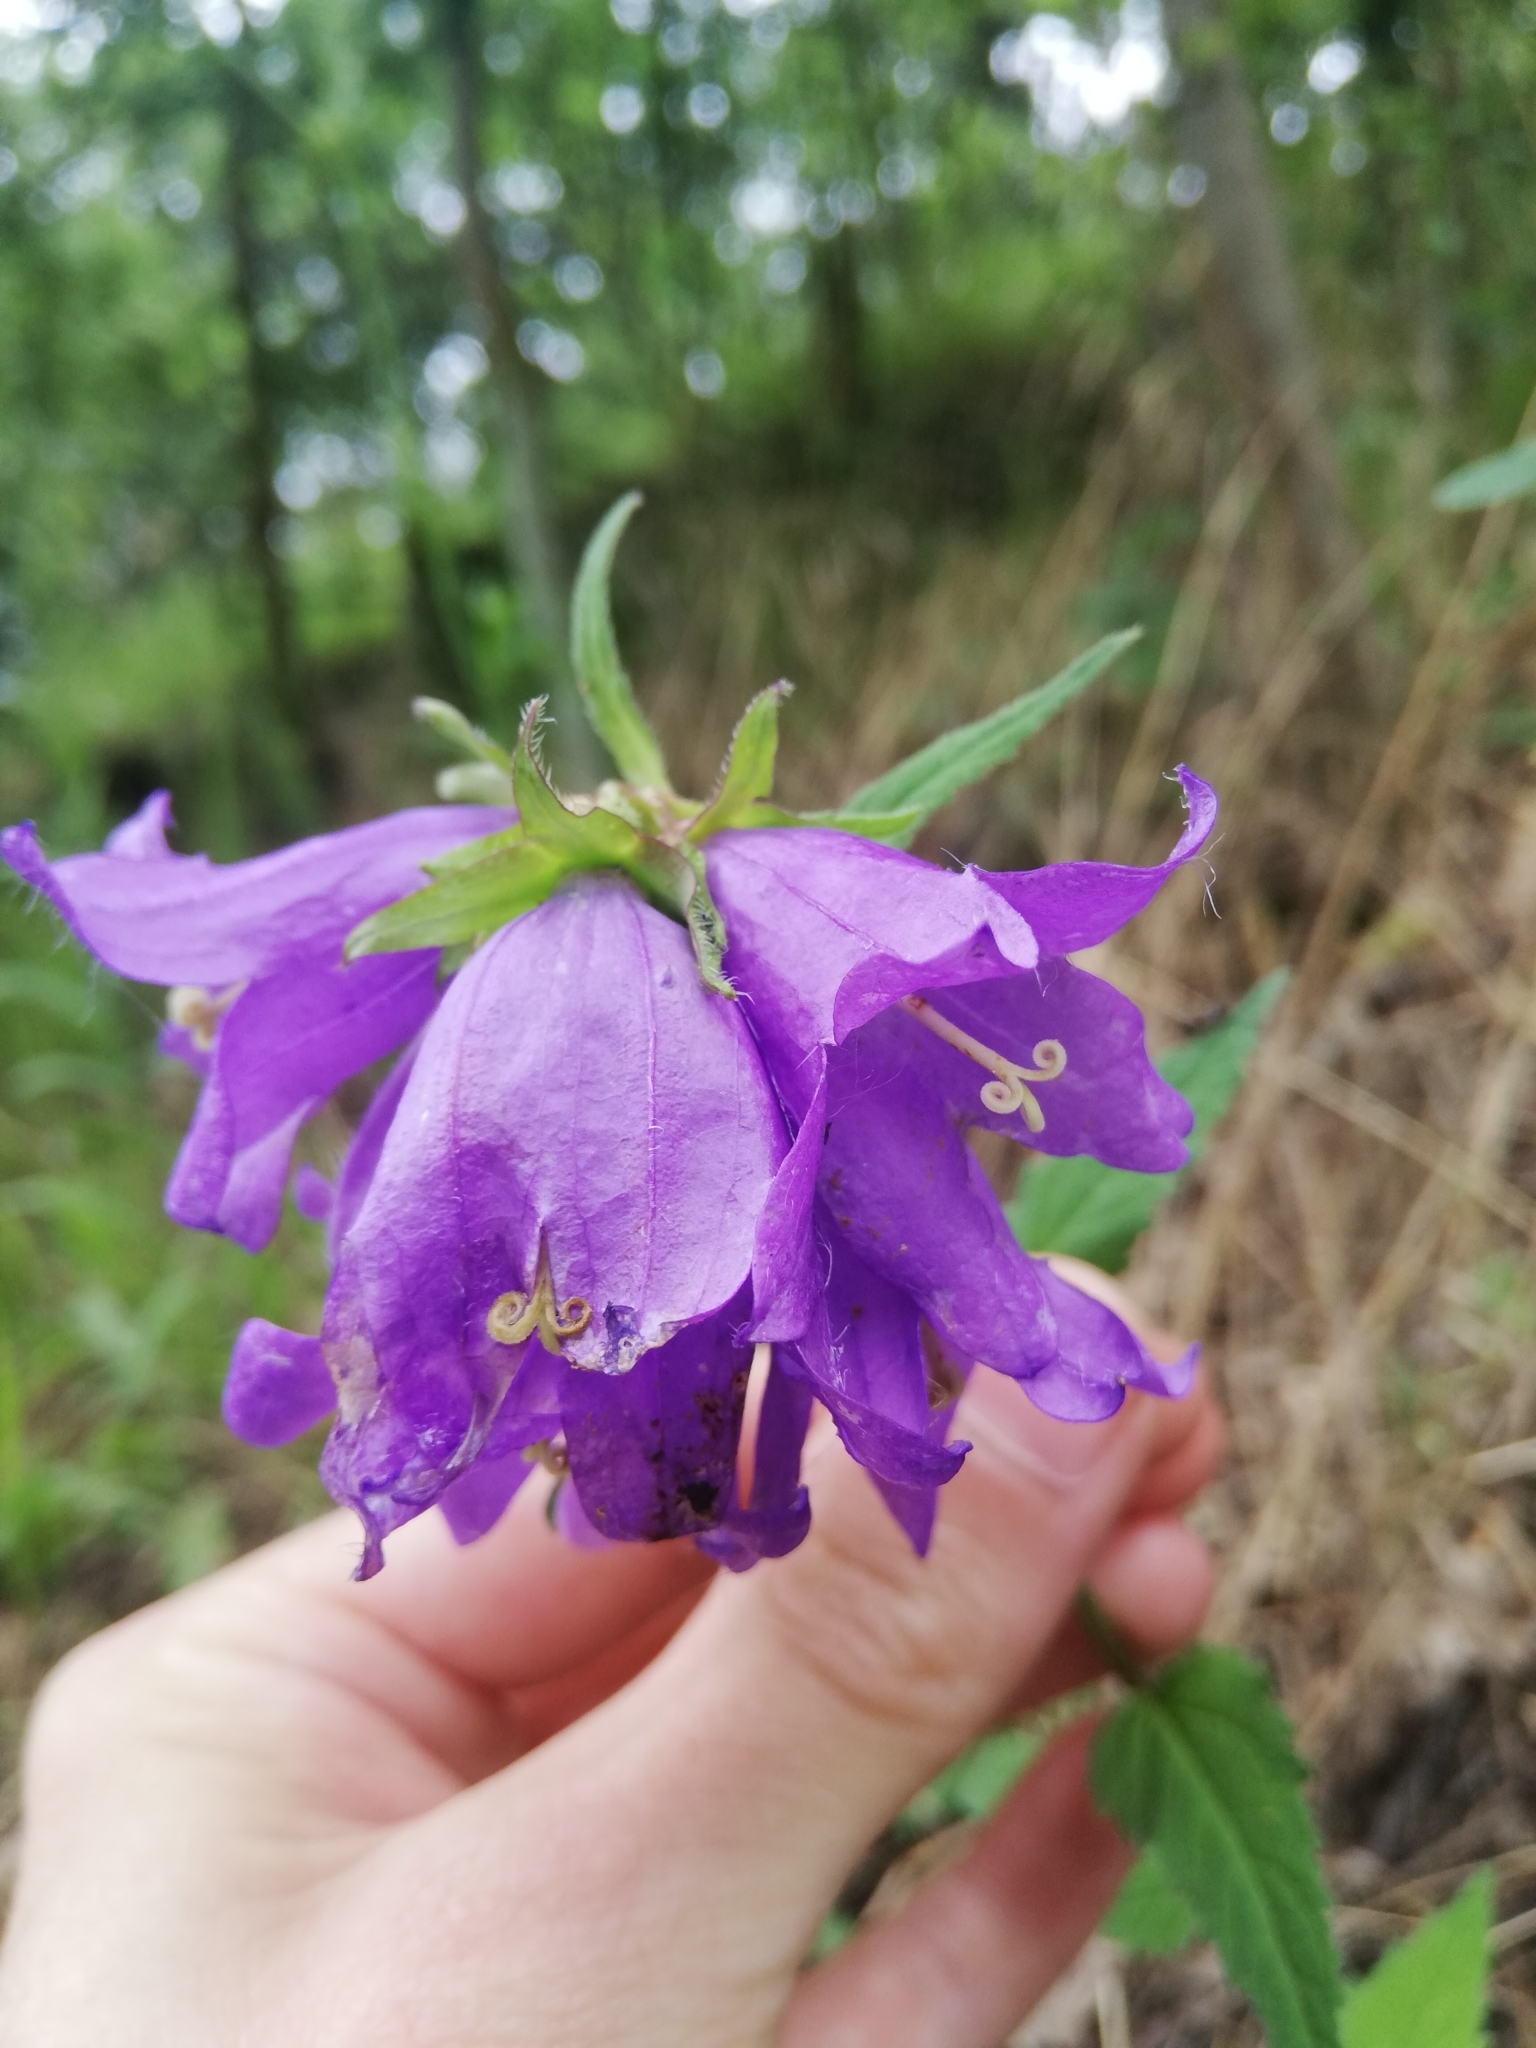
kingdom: Plantae
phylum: Tracheophyta
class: Magnoliopsida
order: Asterales
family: Campanulaceae
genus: Campanula
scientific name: Campanula trachelium
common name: Nettle-leaved bellflower
